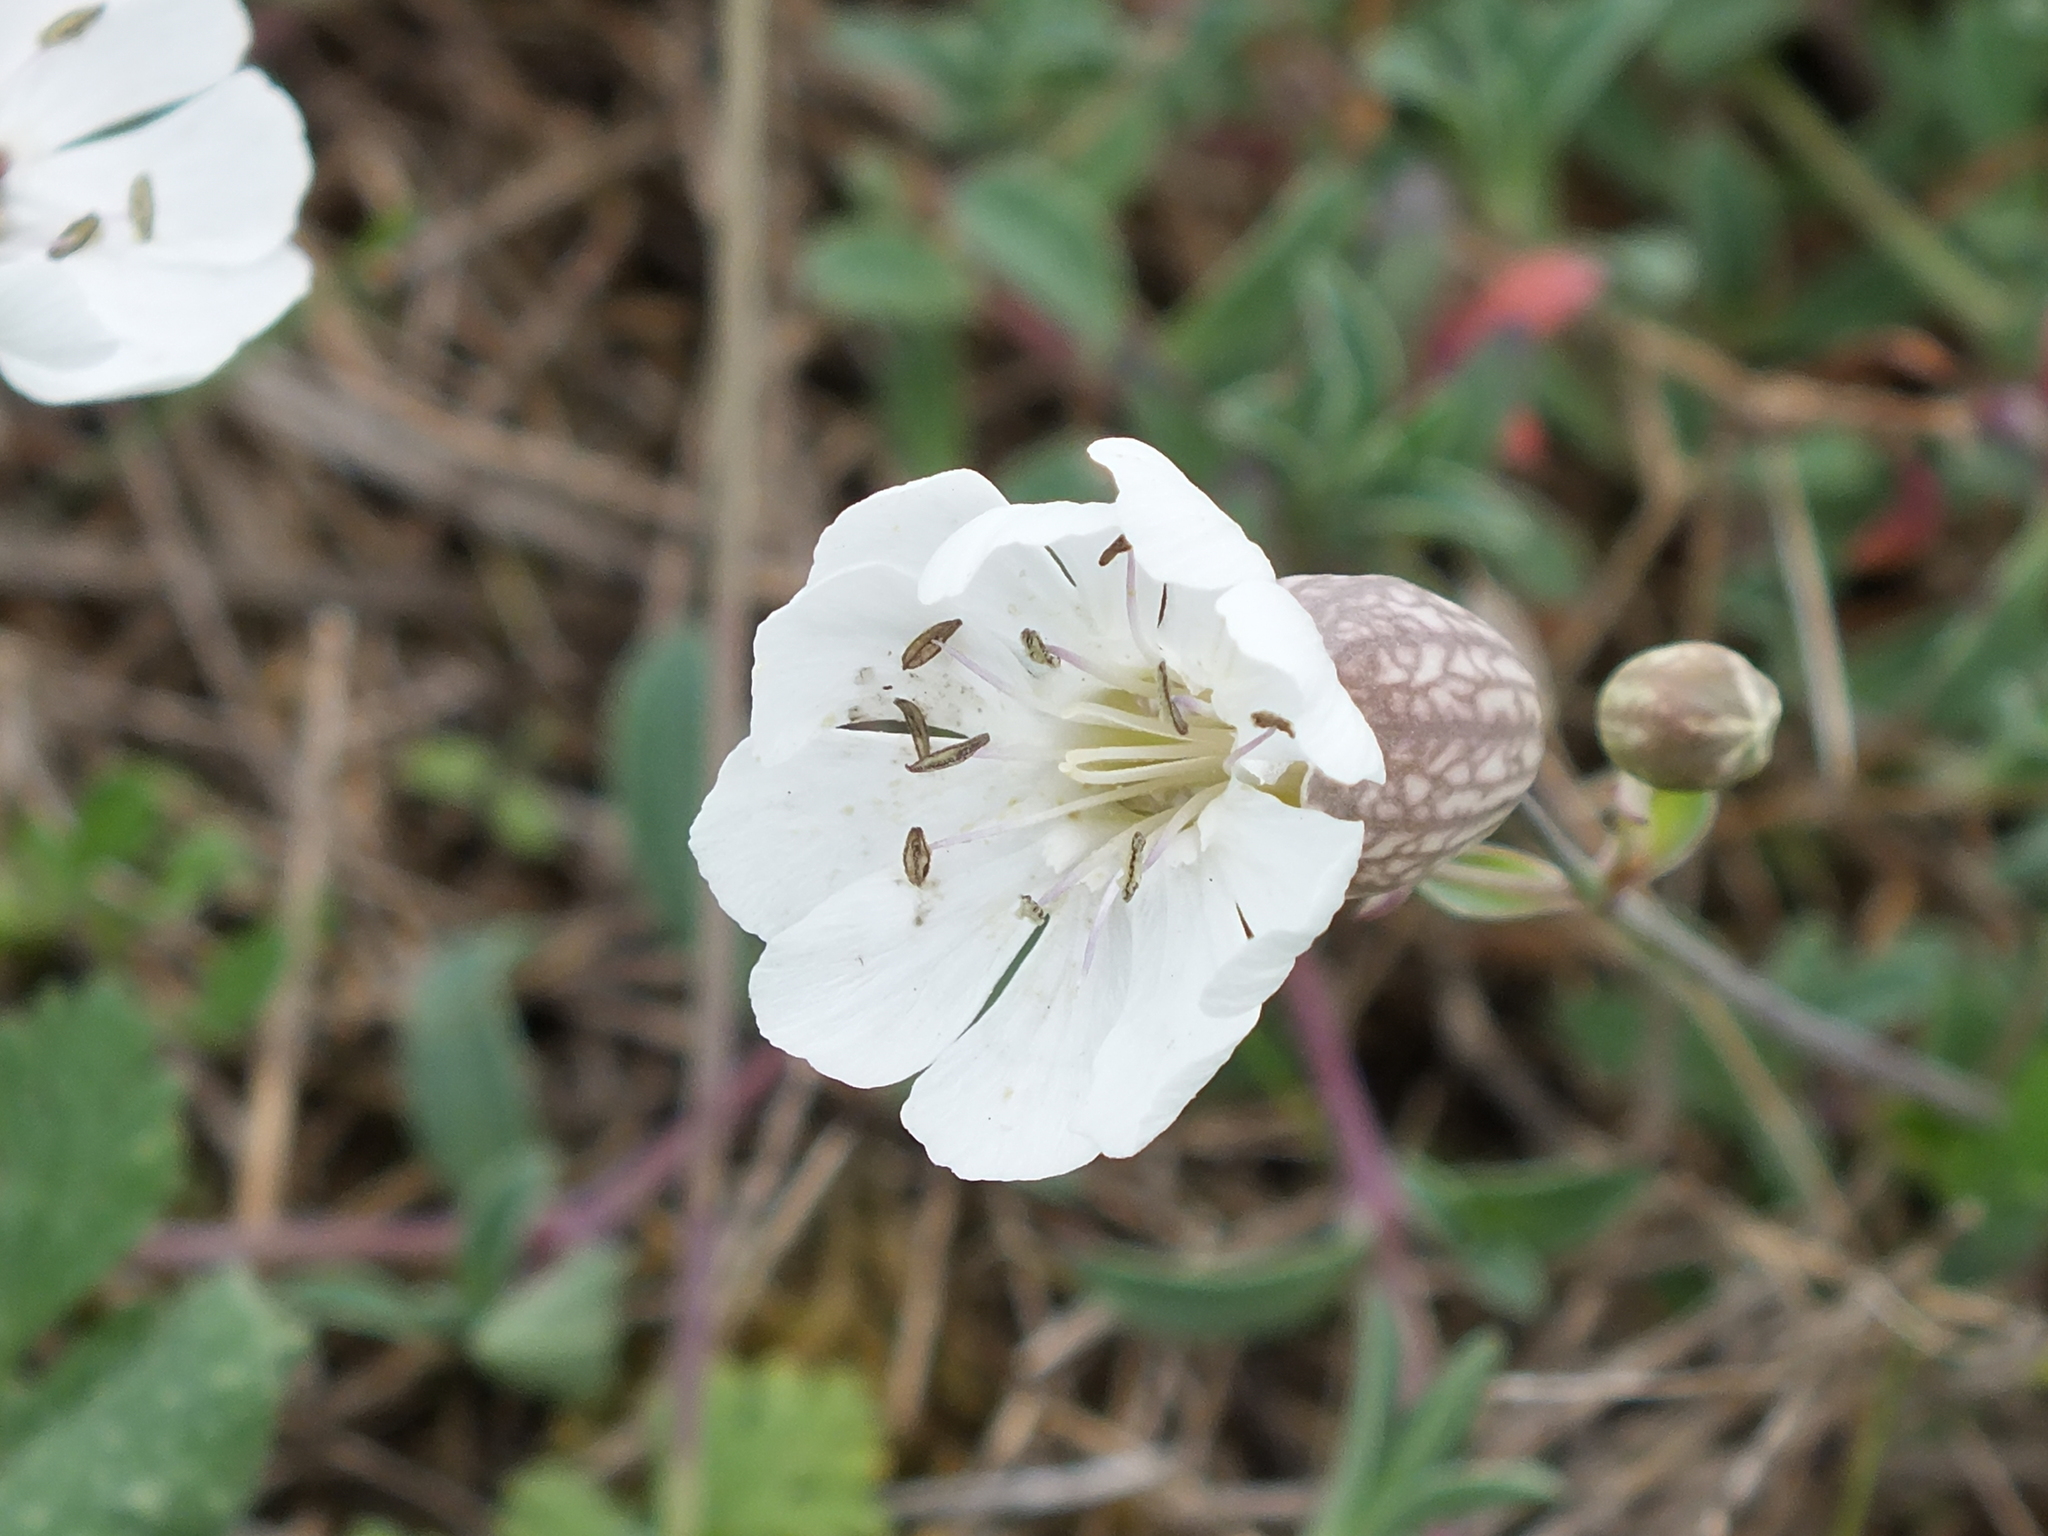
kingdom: Plantae
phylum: Tracheophyta
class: Magnoliopsida
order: Caryophyllales
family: Caryophyllaceae
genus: Silene
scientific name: Silene uniflora
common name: Sea campion
